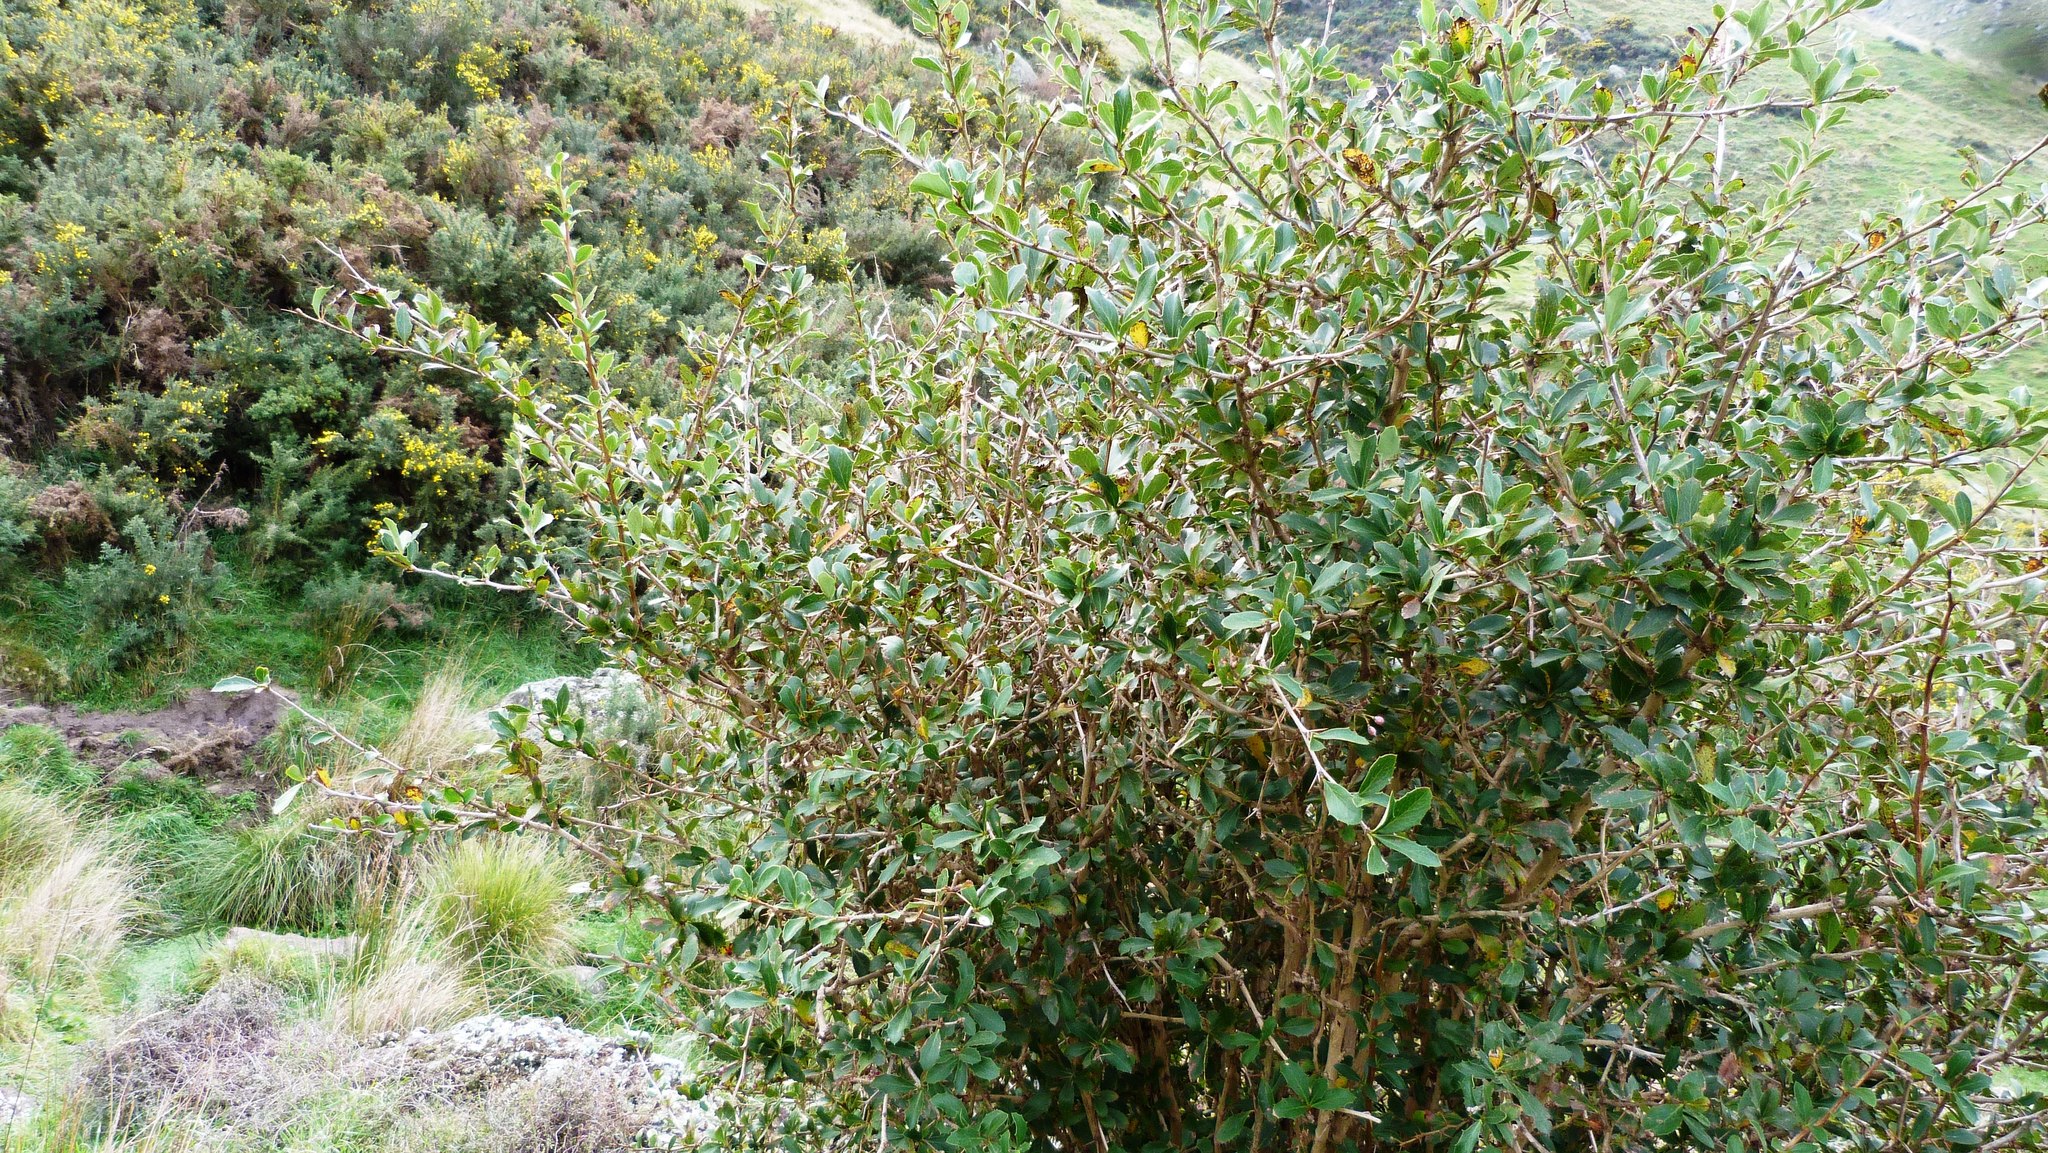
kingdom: Plantae
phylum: Tracheophyta
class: Magnoliopsida
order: Ranunculales
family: Berberidaceae
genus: Berberis
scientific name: Berberis glaucocarpa
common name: Great barberry
